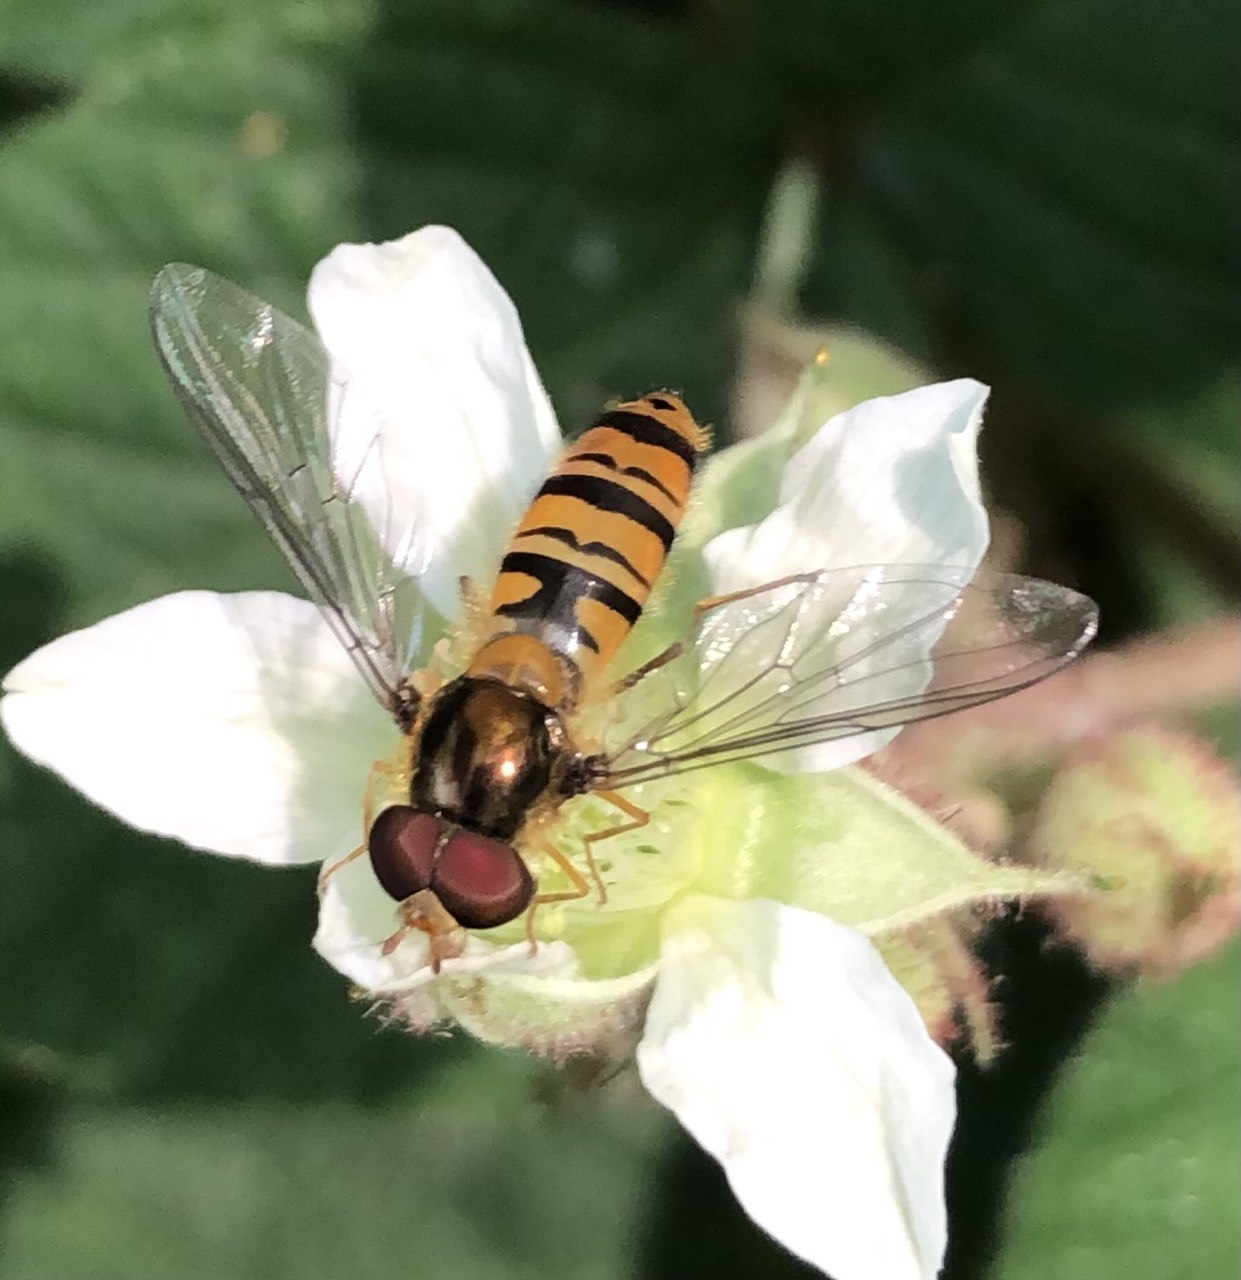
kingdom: Animalia
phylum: Arthropoda
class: Insecta
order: Diptera
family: Syrphidae
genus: Episyrphus
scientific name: Episyrphus balteatus
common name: Marmalade hoverfly
